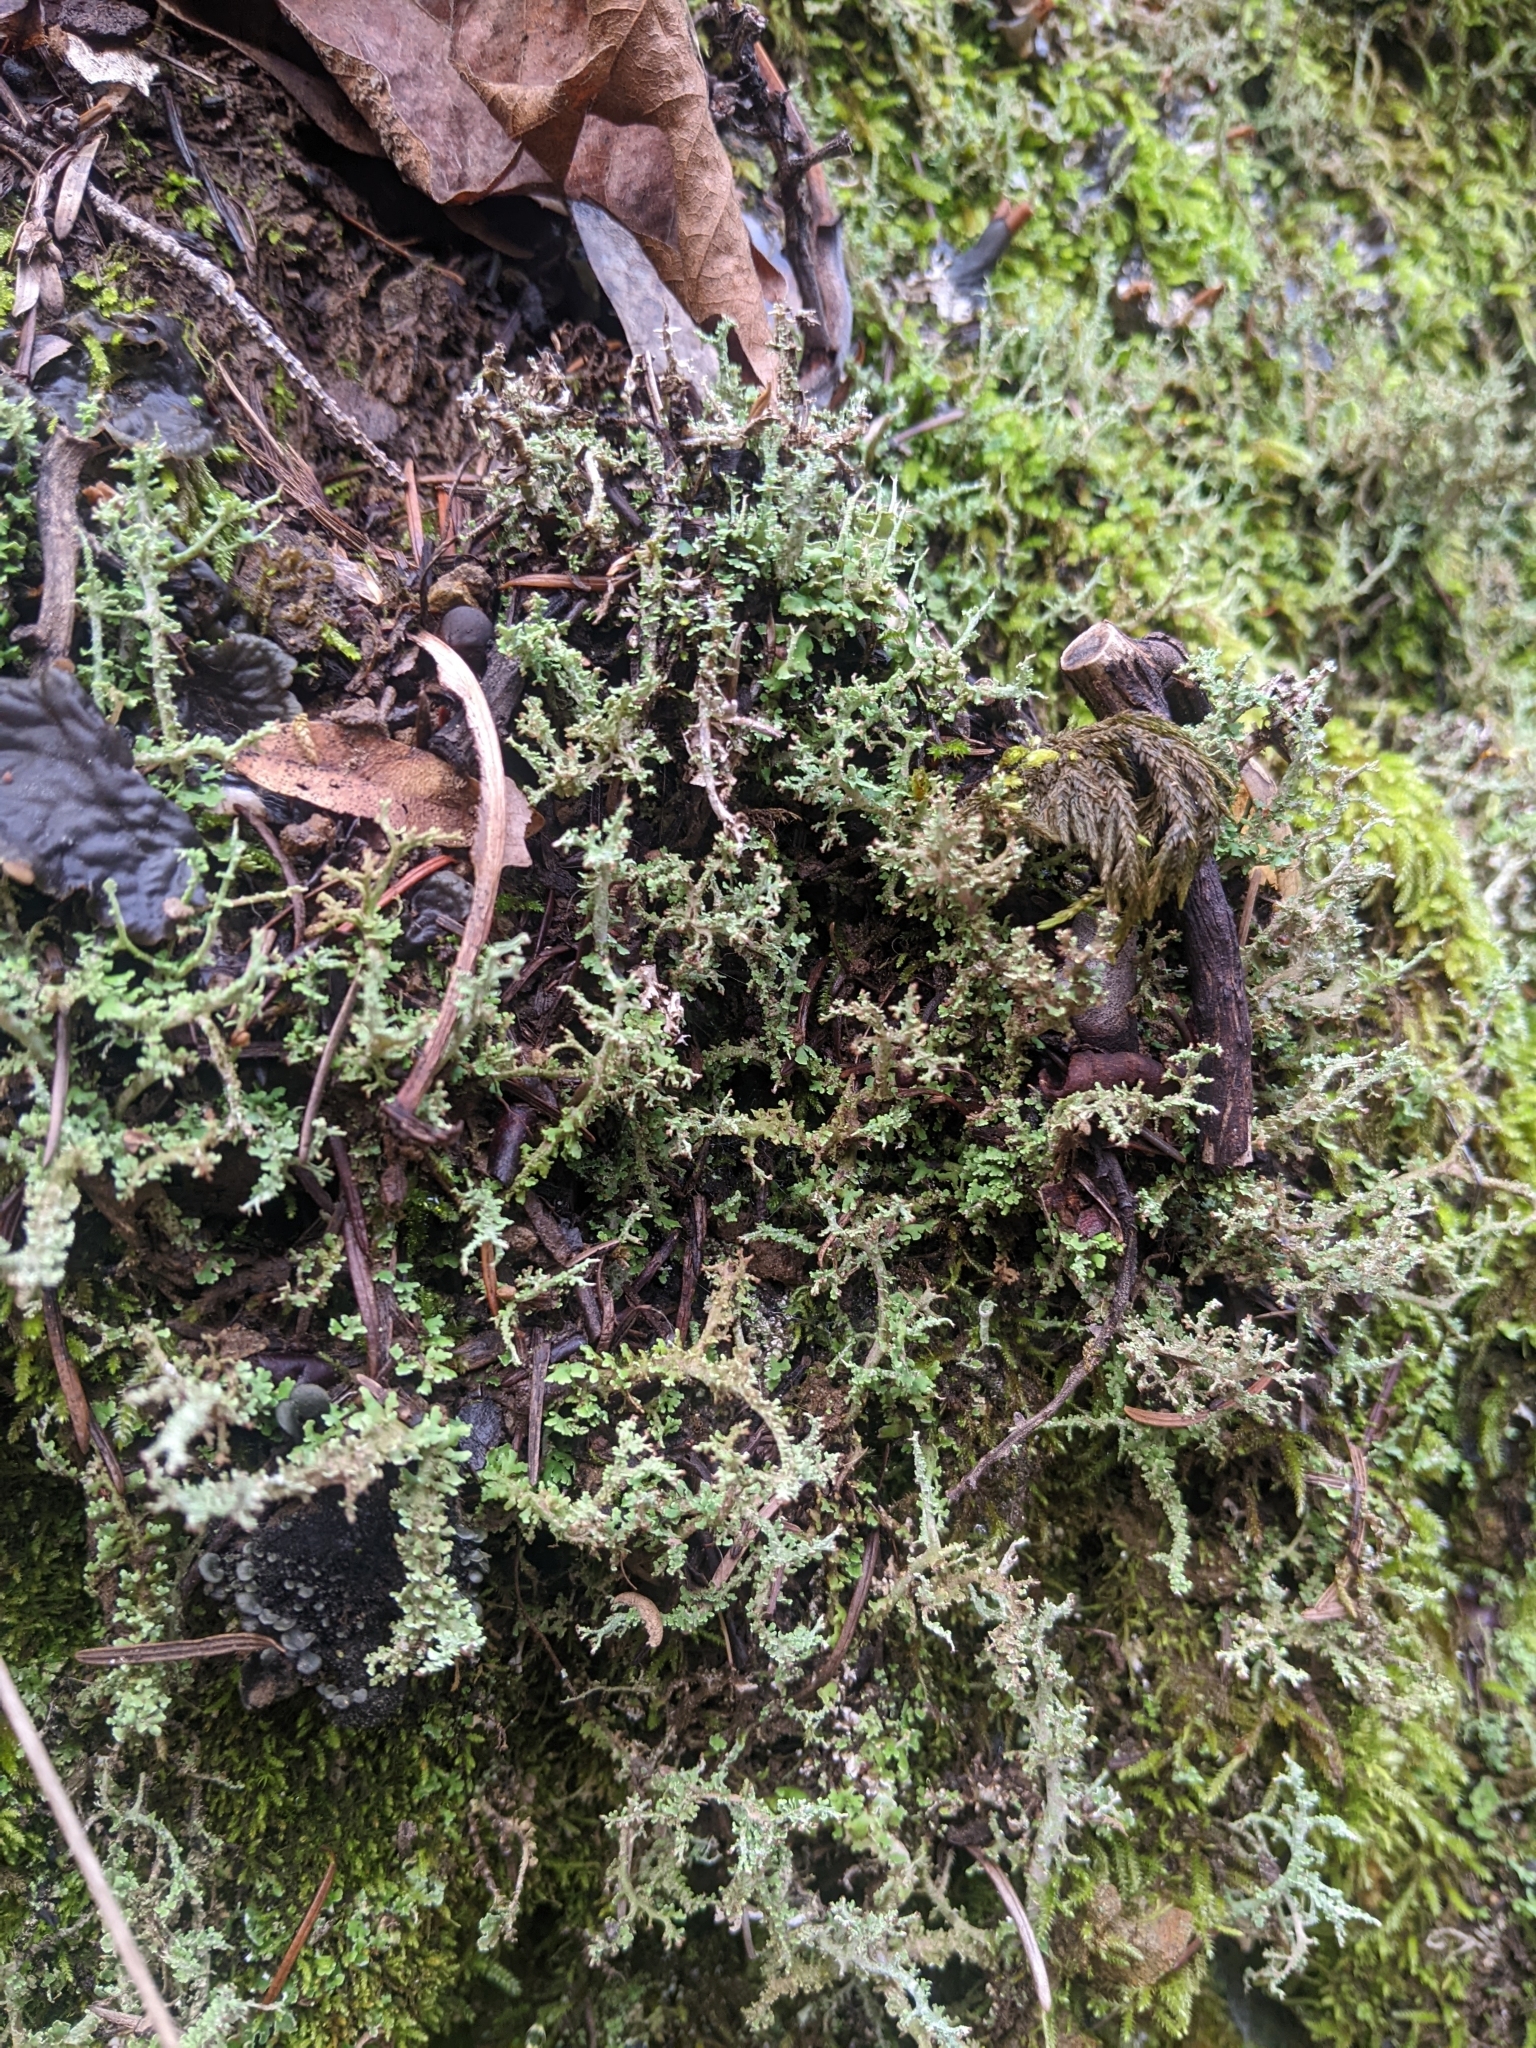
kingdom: Fungi
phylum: Ascomycota
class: Lecanoromycetes
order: Lecanorales
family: Cladoniaceae
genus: Cladonia
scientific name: Cladonia squamosa
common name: Dragon horn
